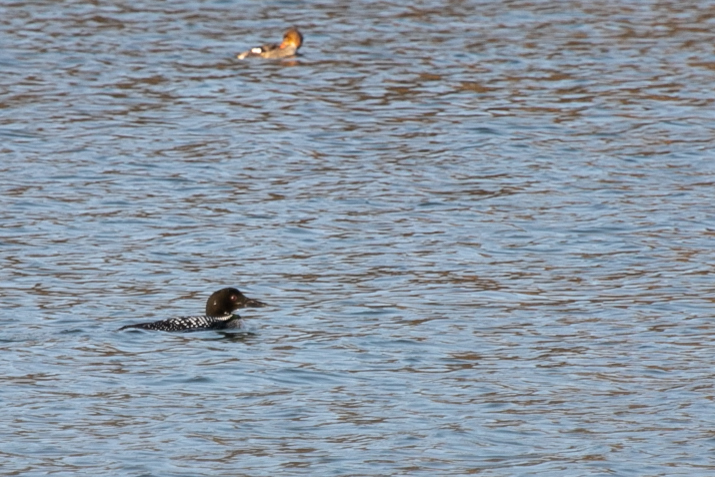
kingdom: Animalia
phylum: Chordata
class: Aves
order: Gaviiformes
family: Gaviidae
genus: Gavia
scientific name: Gavia immer
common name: Common loon
